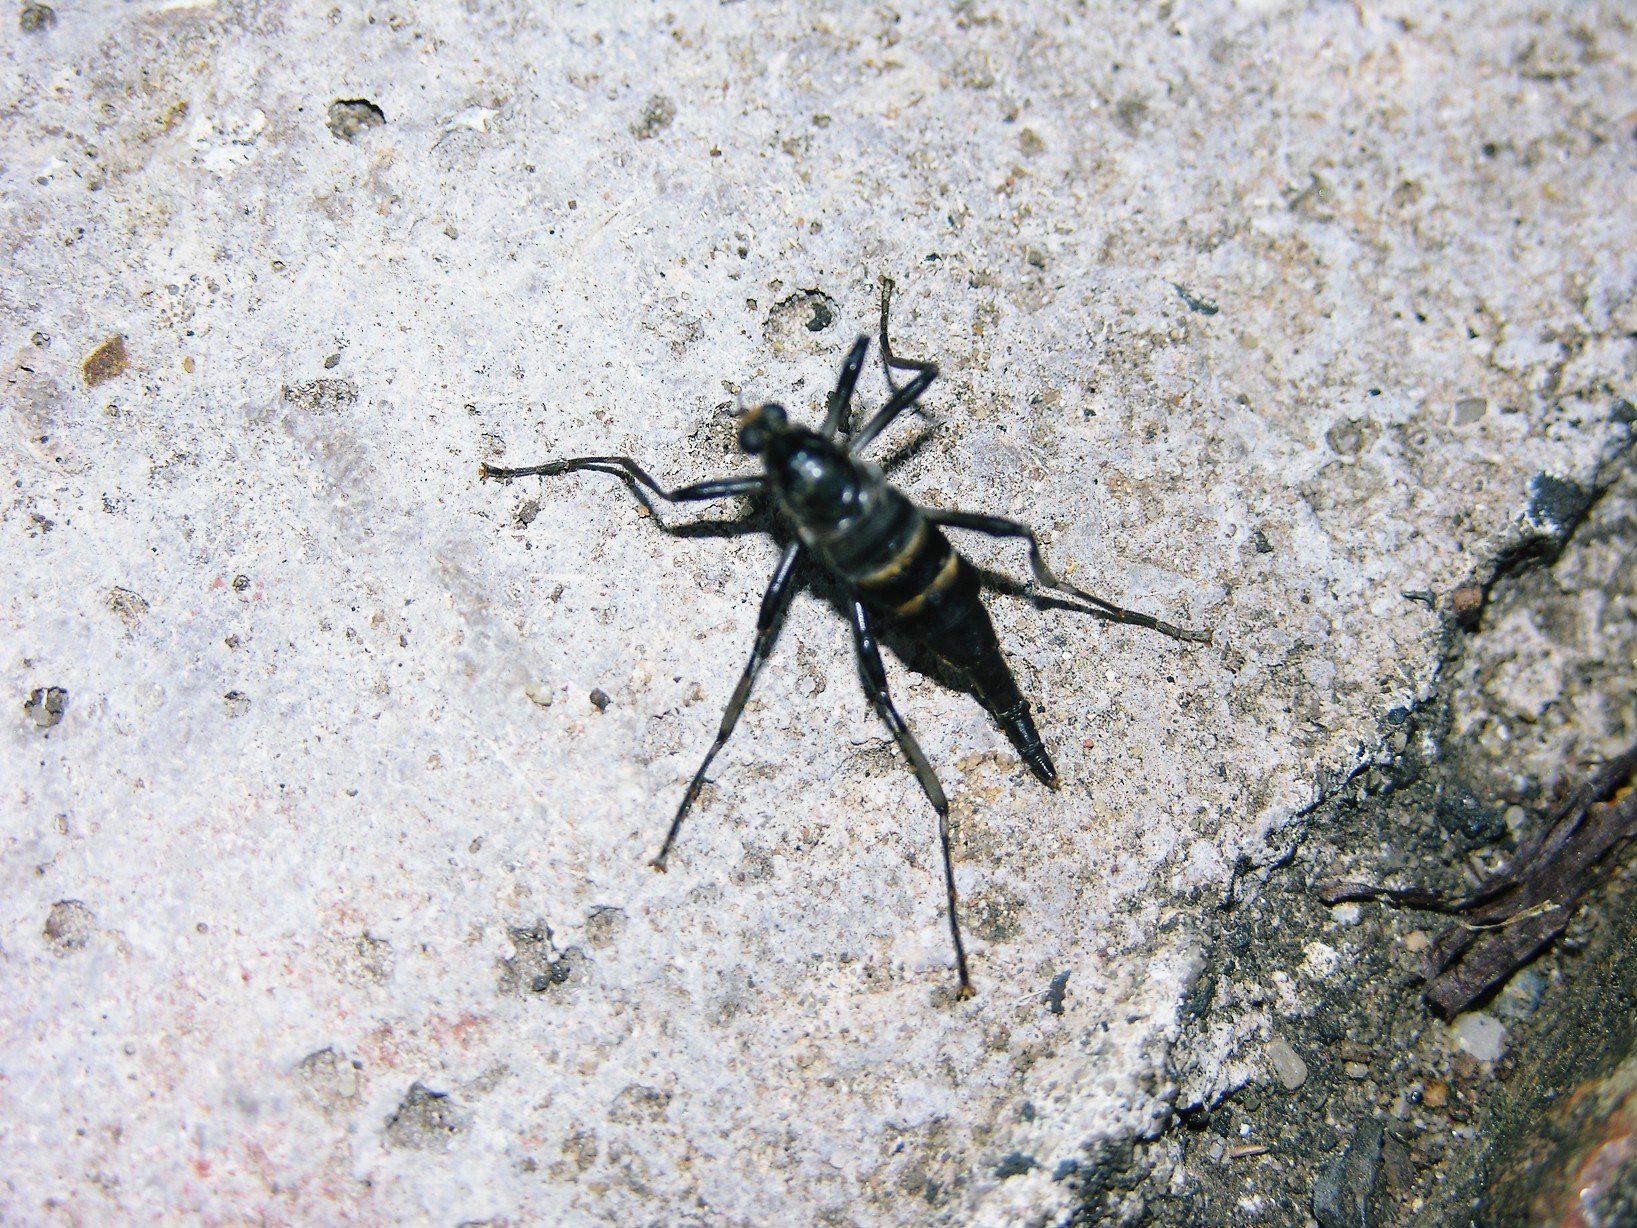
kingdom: Animalia
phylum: Arthropoda
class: Insecta
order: Diptera
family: Stratiomyidae
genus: Boreoides
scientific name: Boreoides subulatus
